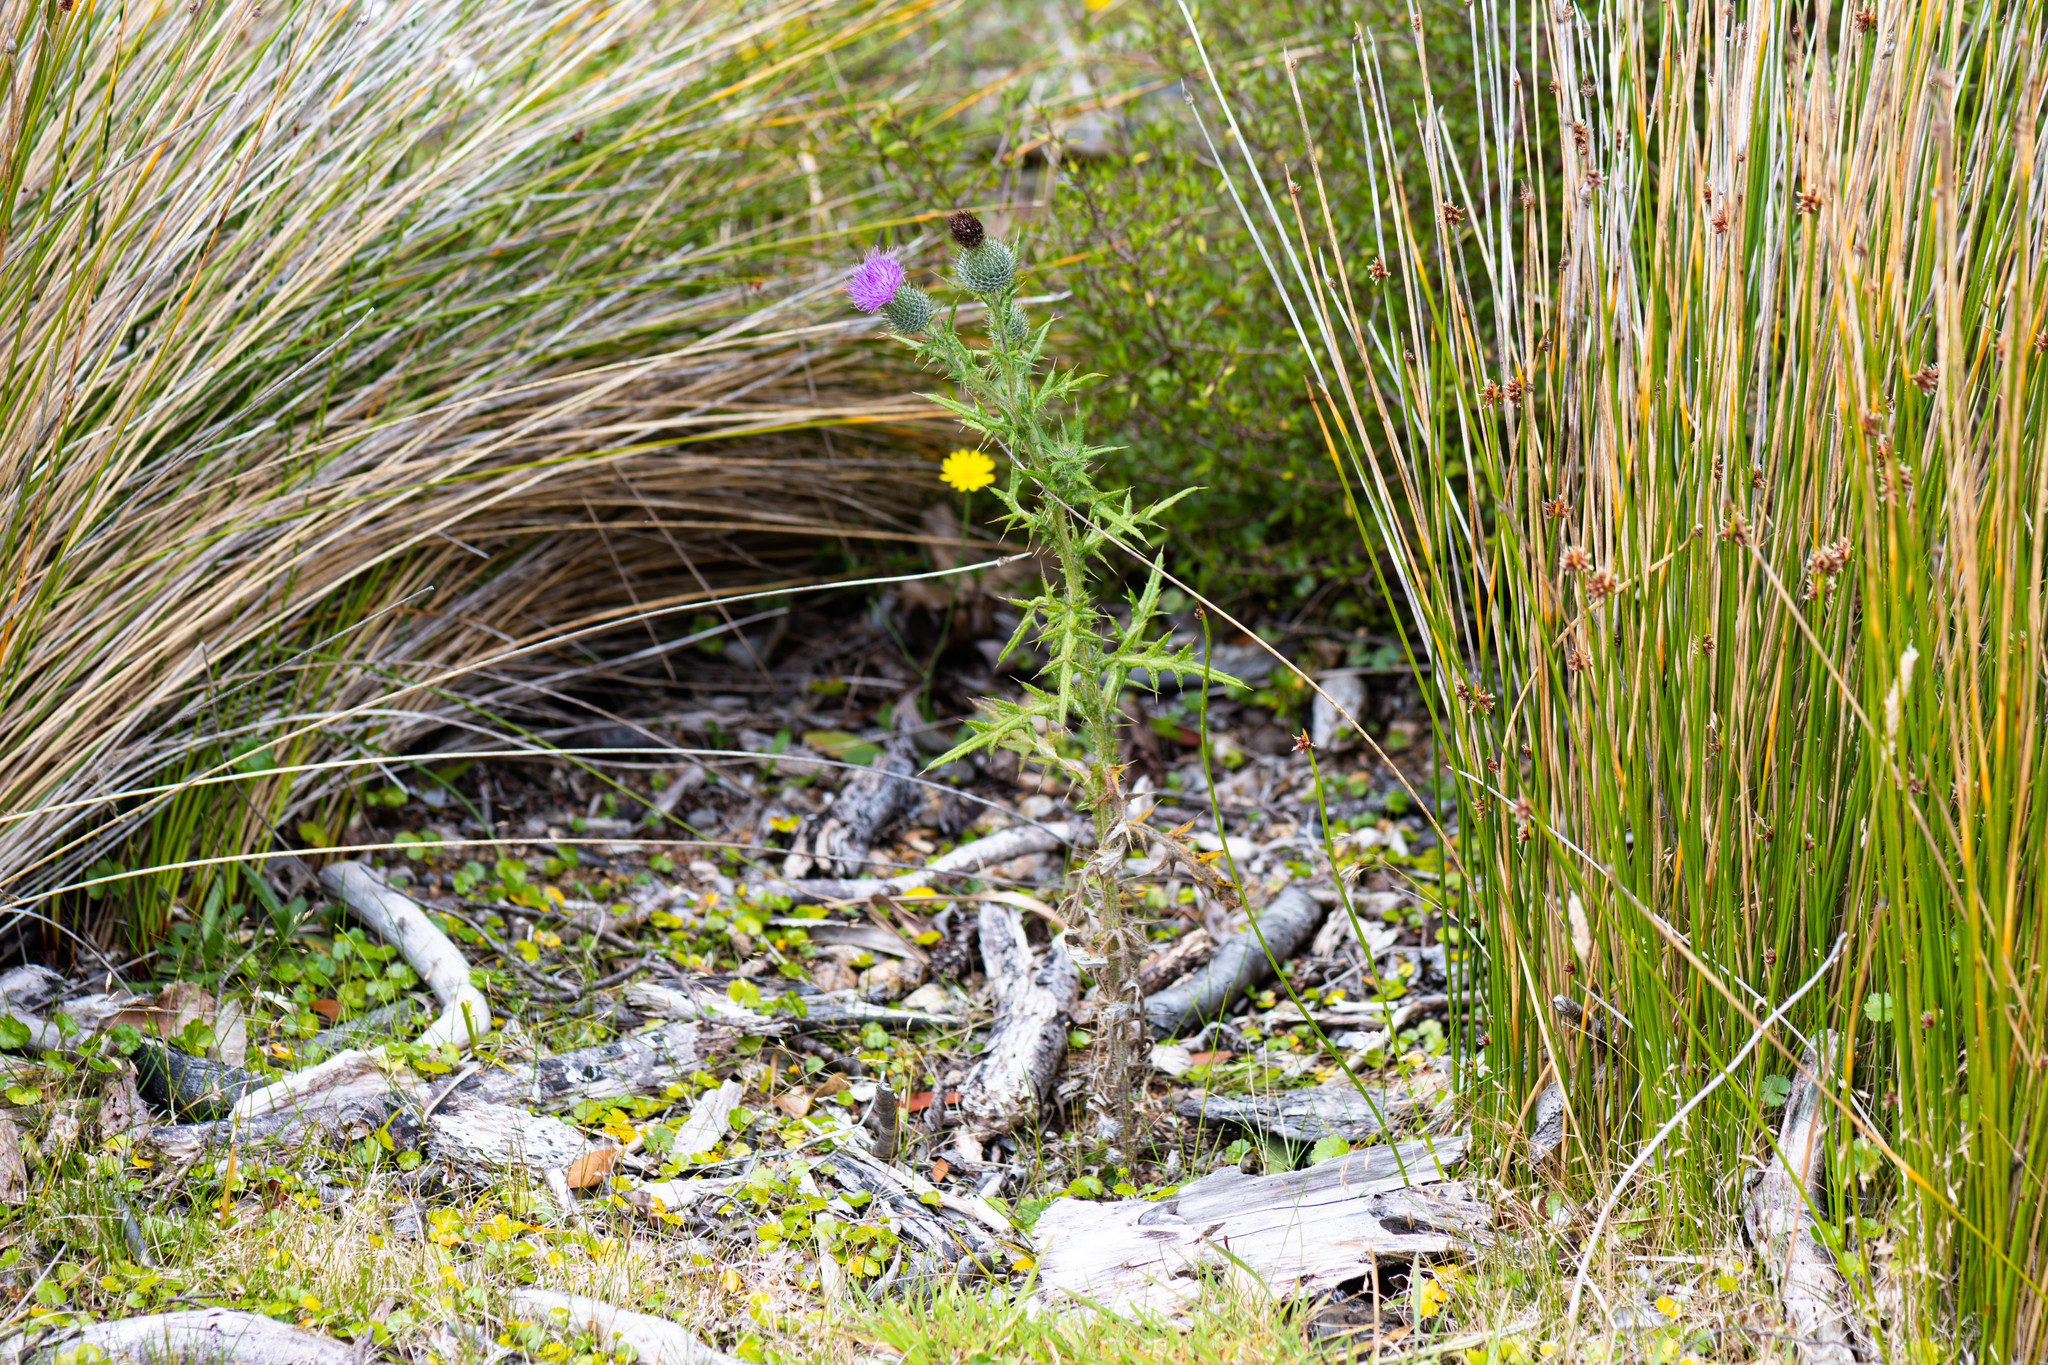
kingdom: Plantae
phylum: Tracheophyta
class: Magnoliopsida
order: Asterales
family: Asteraceae
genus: Cirsium
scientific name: Cirsium vulgare
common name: Bull thistle
